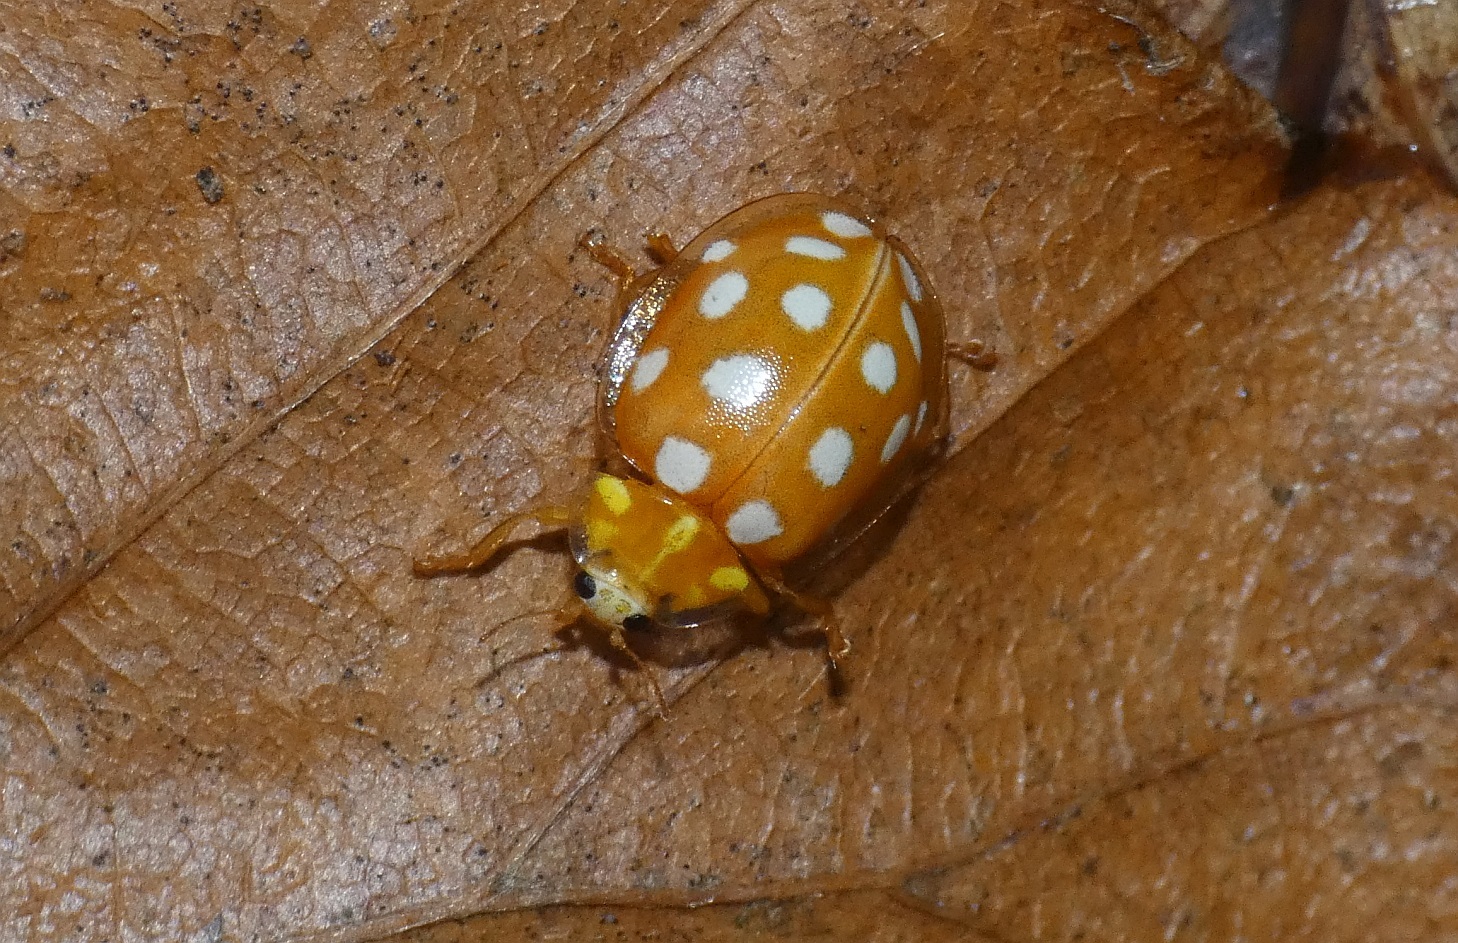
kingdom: Animalia
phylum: Arthropoda
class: Insecta
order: Coleoptera
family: Coccinellidae
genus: Halyzia
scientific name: Halyzia sedecimguttata
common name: Orange ladybird
